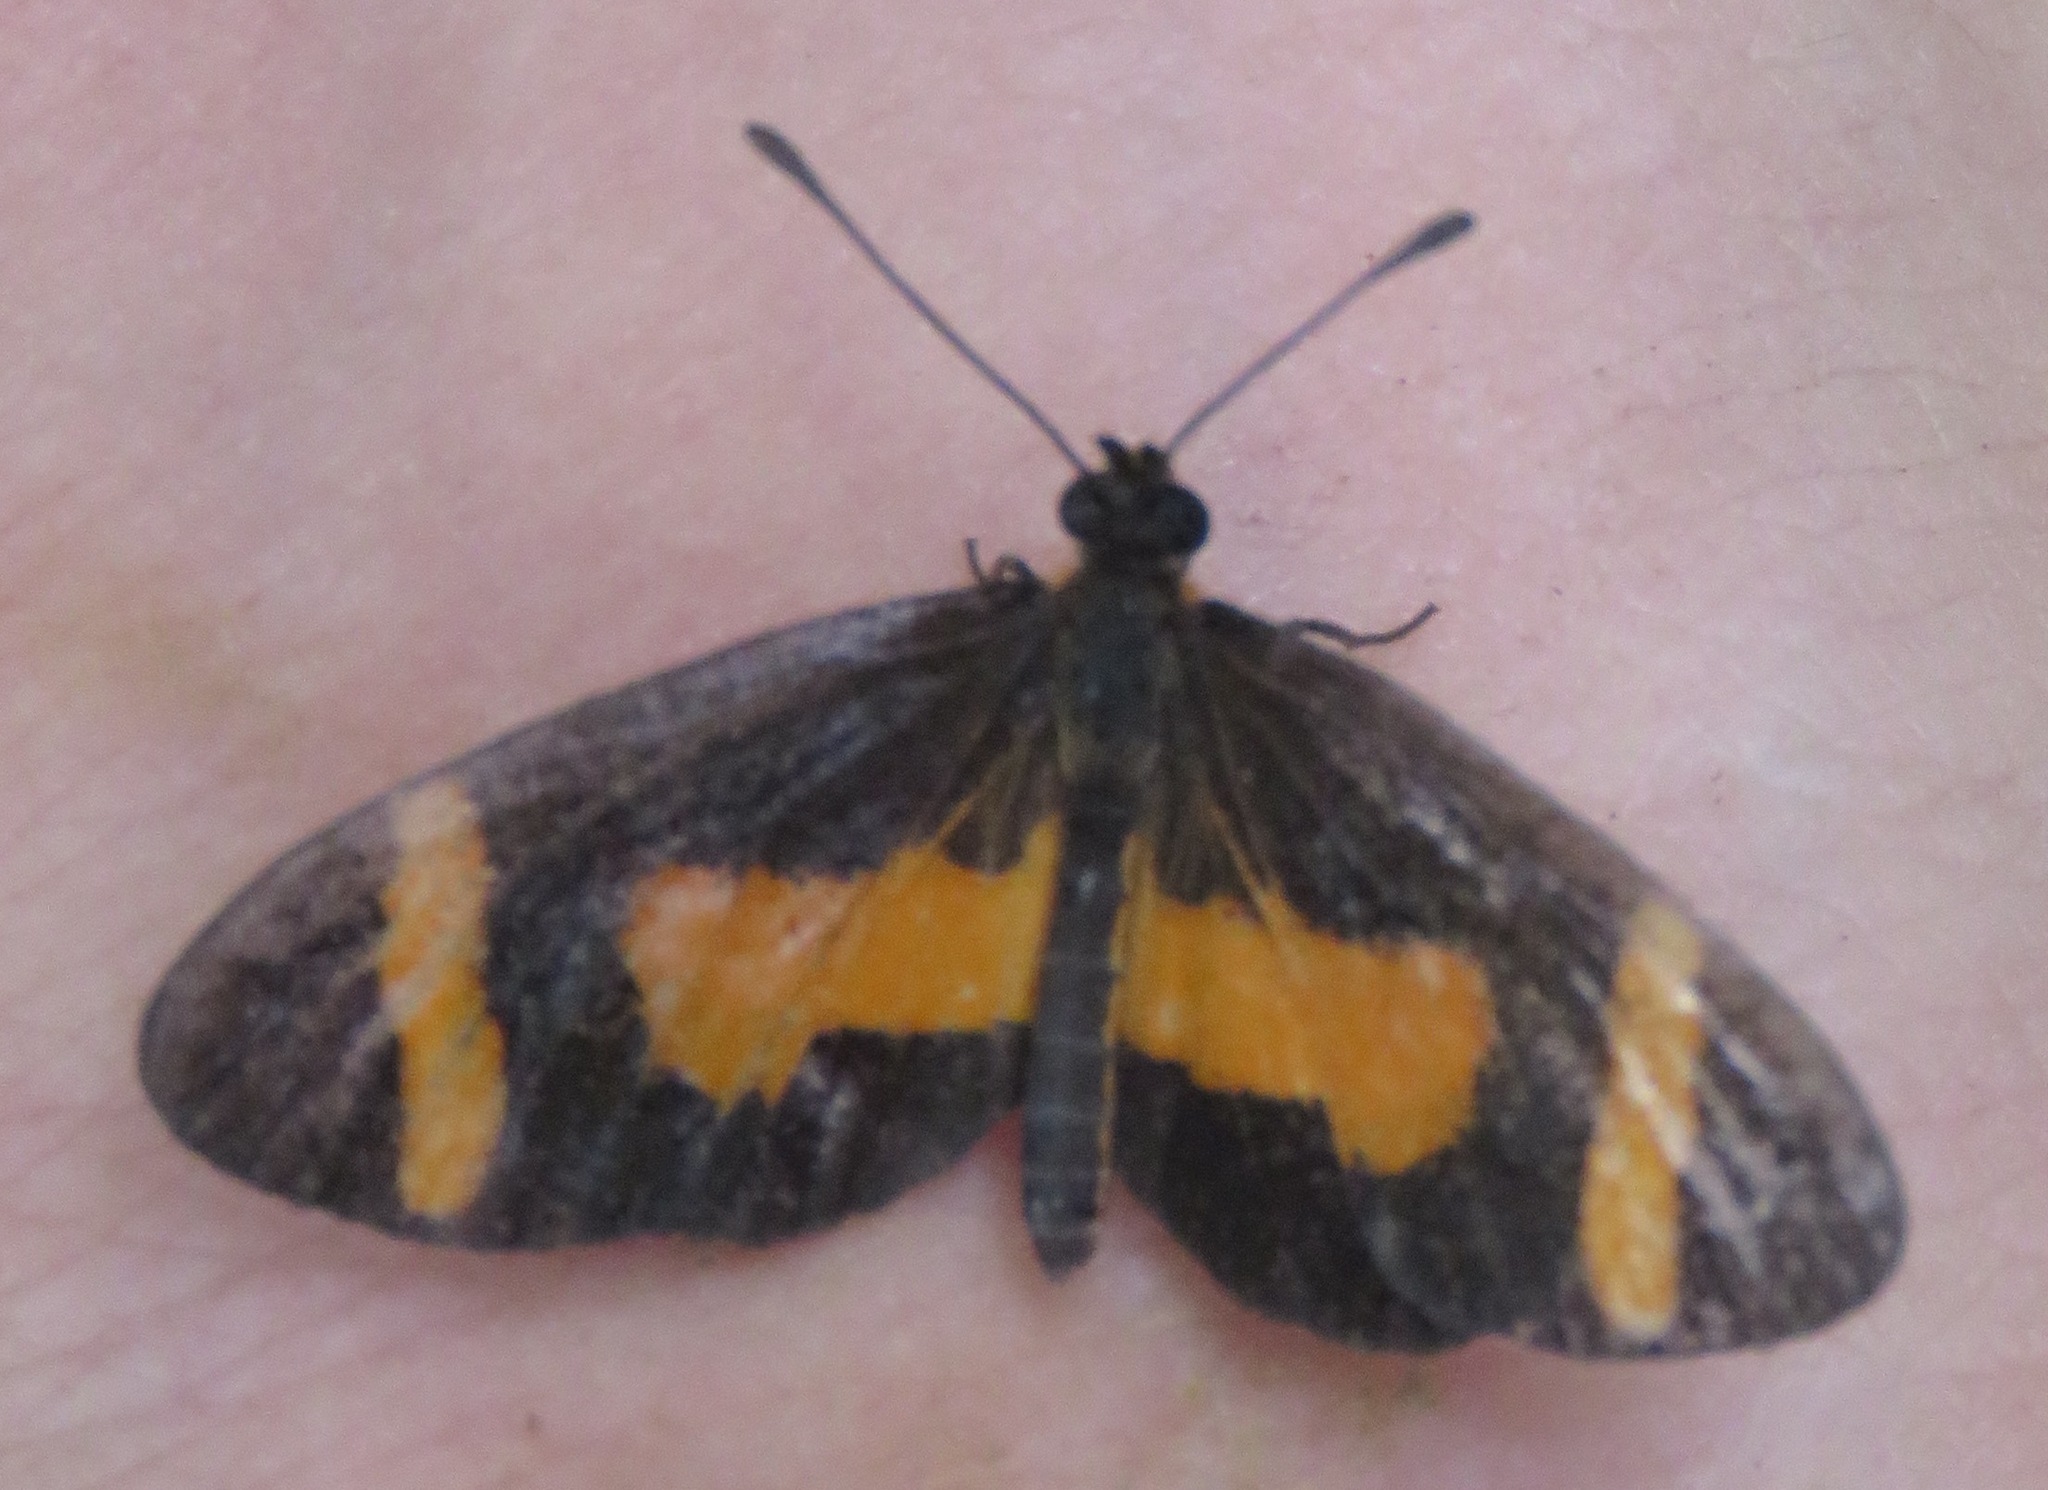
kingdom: Animalia
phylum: Arthropoda
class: Insecta
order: Lepidoptera
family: Nymphalidae
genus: Microtia
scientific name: Microtia elva
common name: Elf
